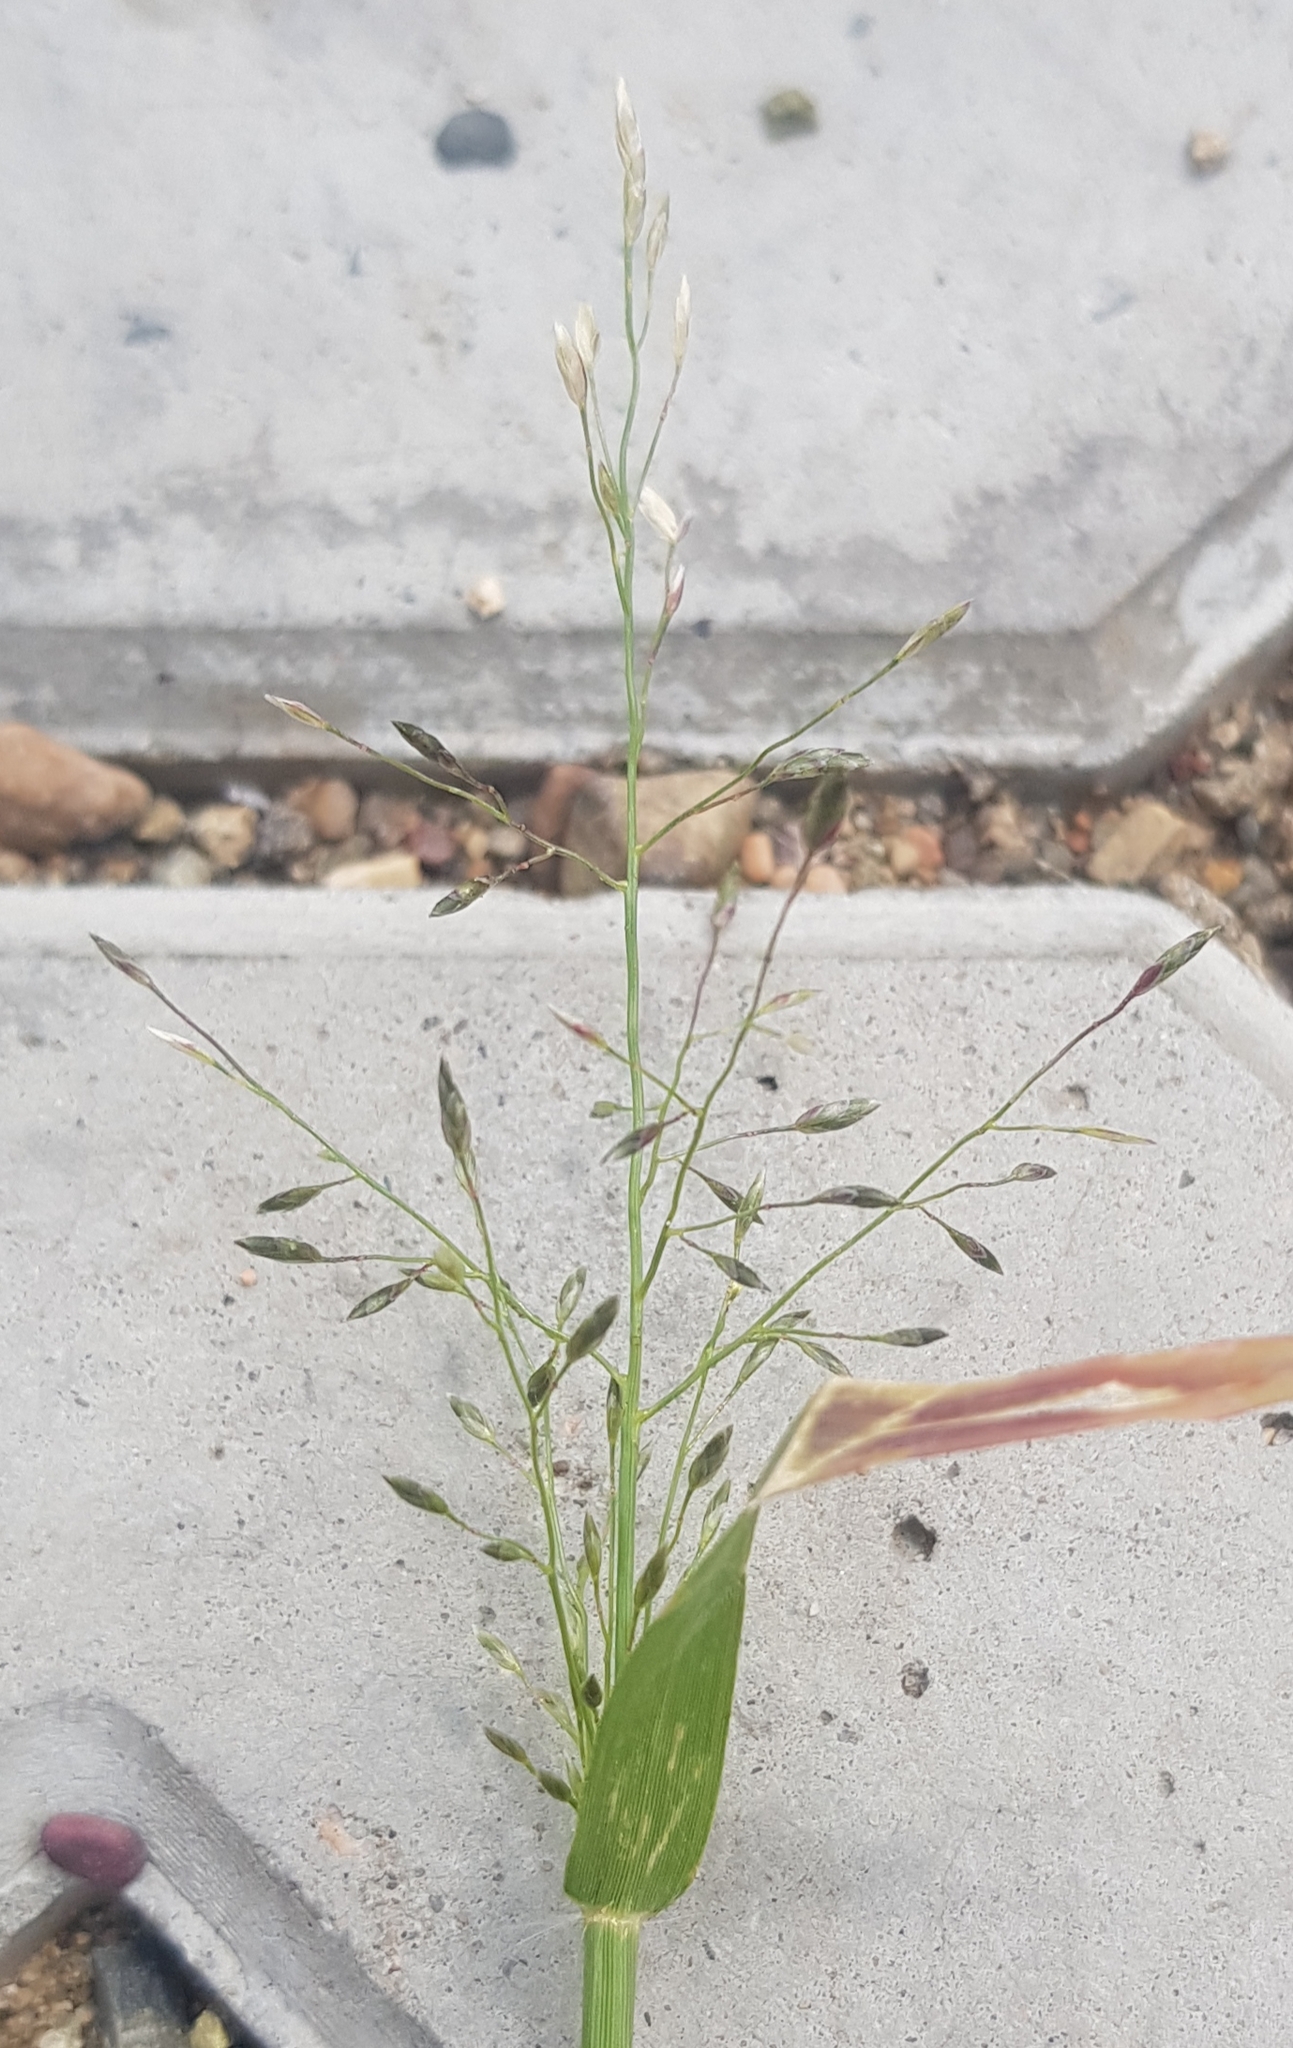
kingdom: Plantae
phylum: Tracheophyta
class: Liliopsida
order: Poales
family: Poaceae
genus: Eragrostis
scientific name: Eragrostis minor
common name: Small love-grass
